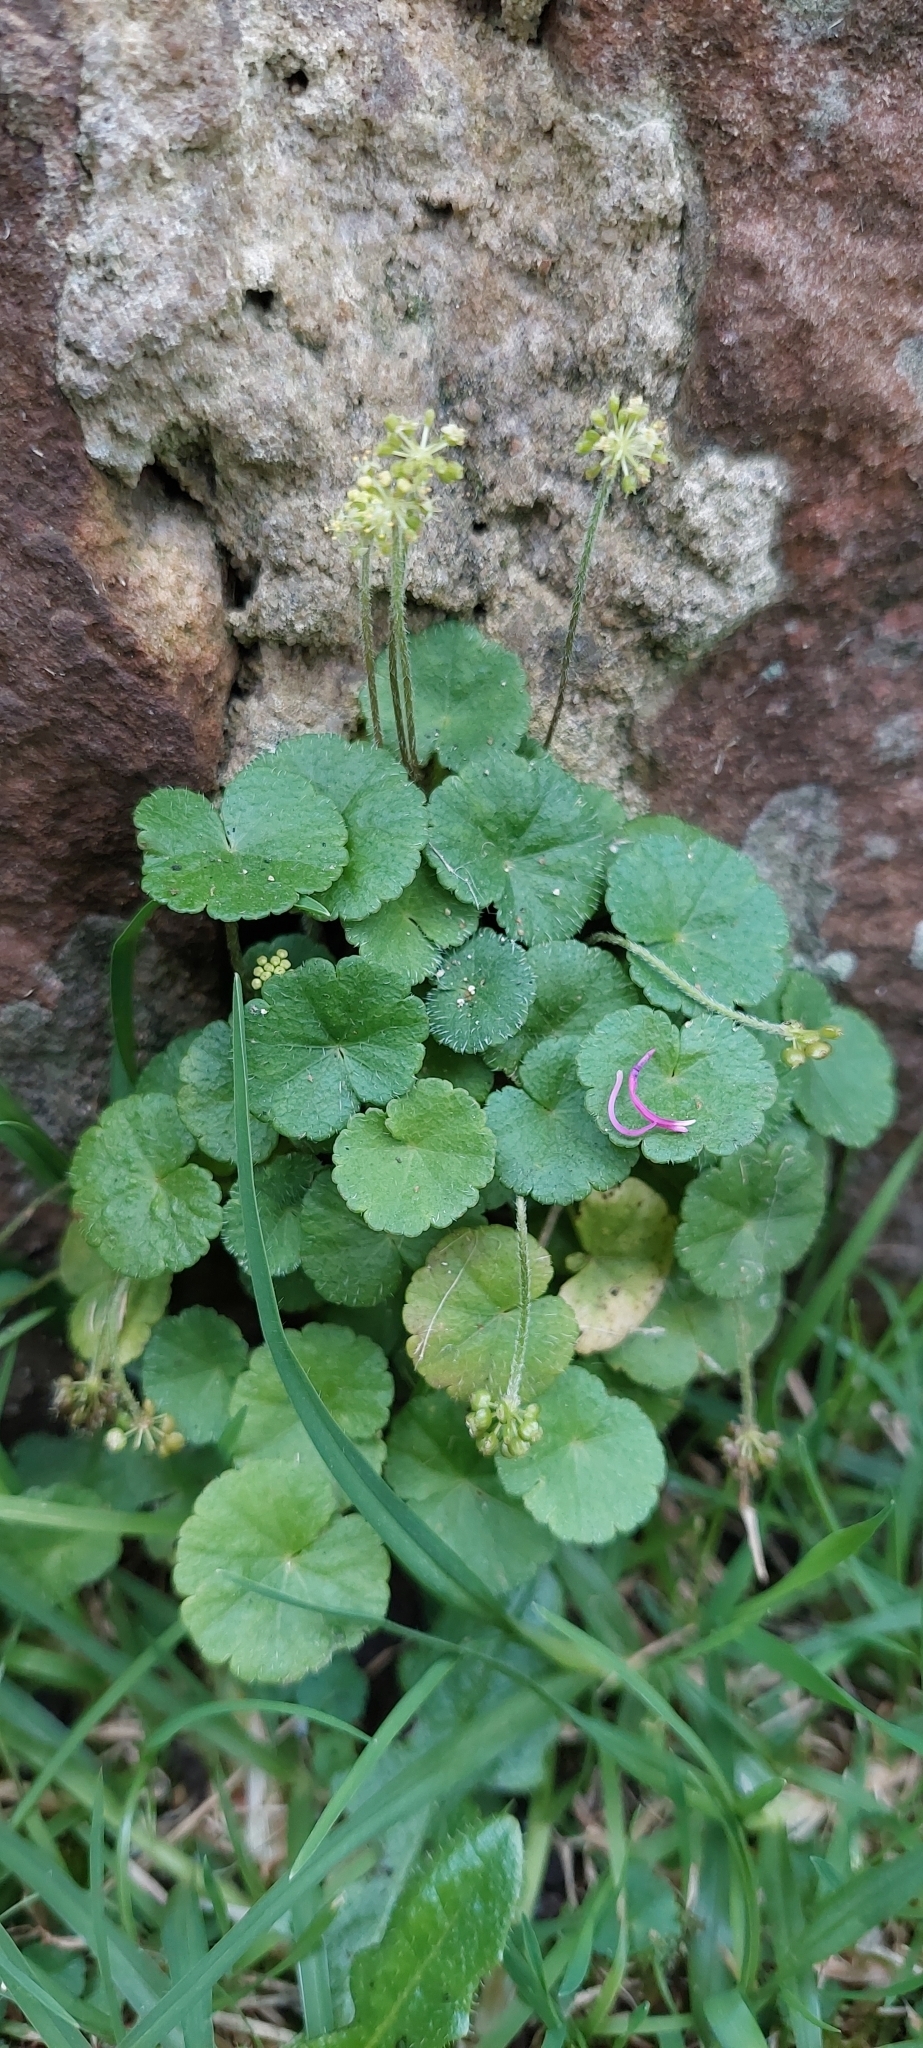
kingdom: Plantae
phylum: Tracheophyta
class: Magnoliopsida
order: Apiales
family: Araliaceae
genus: Hydrocotyle
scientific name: Hydrocotyle bonplandii
